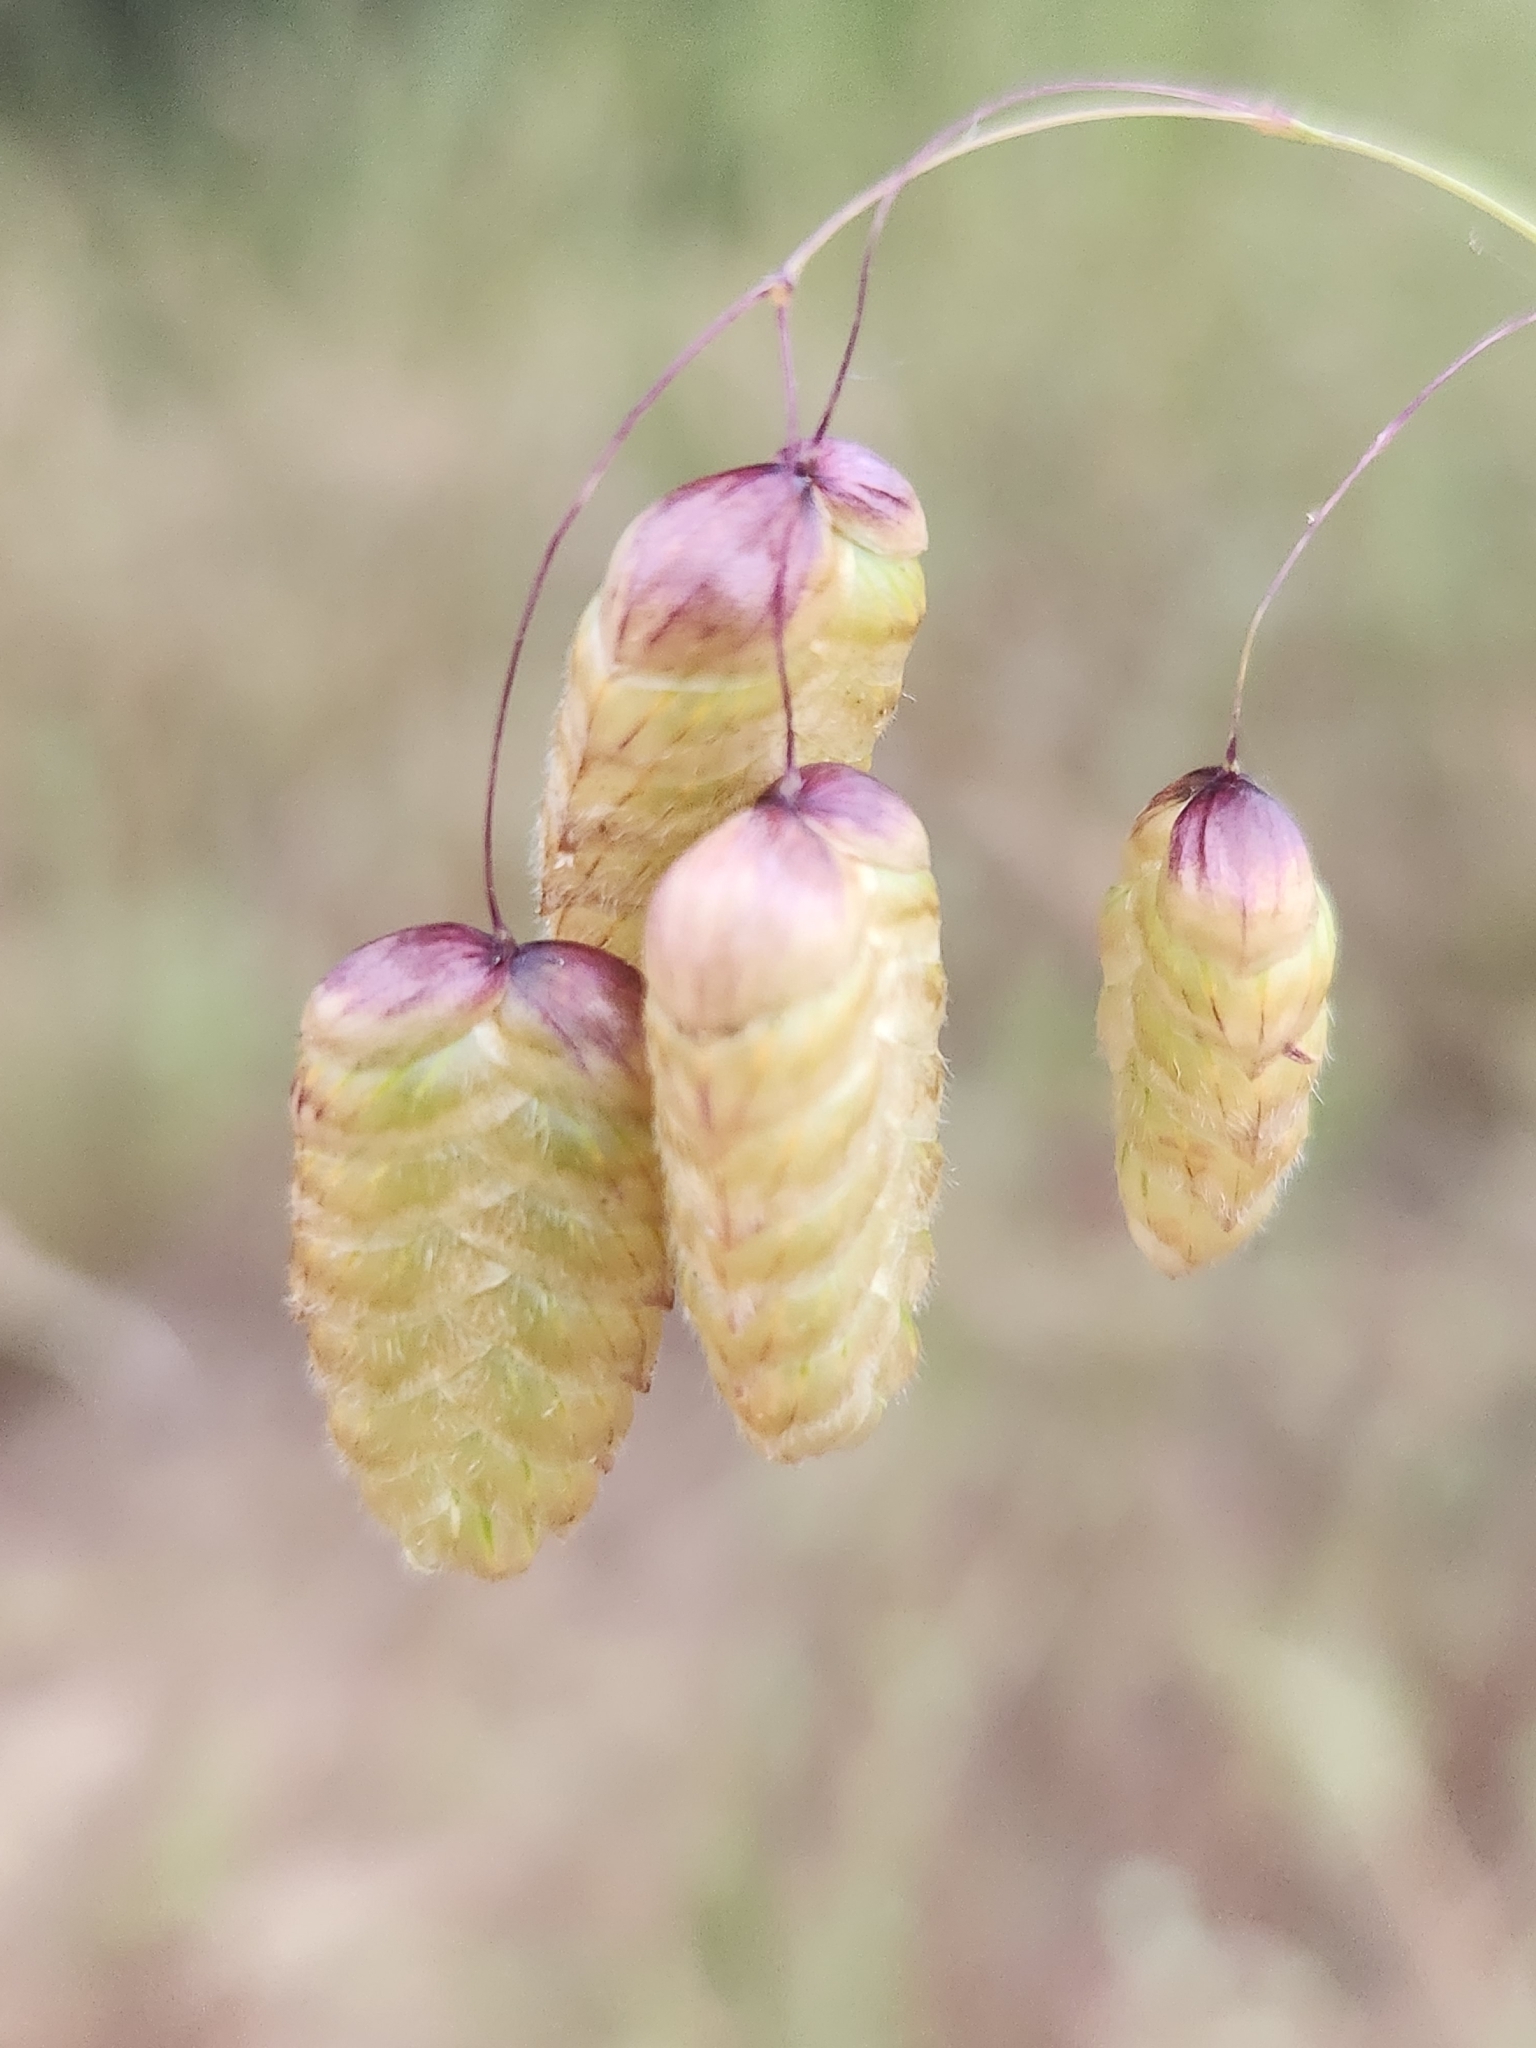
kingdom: Plantae
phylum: Tracheophyta
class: Liliopsida
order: Poales
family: Poaceae
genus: Briza
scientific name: Briza maxima
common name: Big quakinggrass
